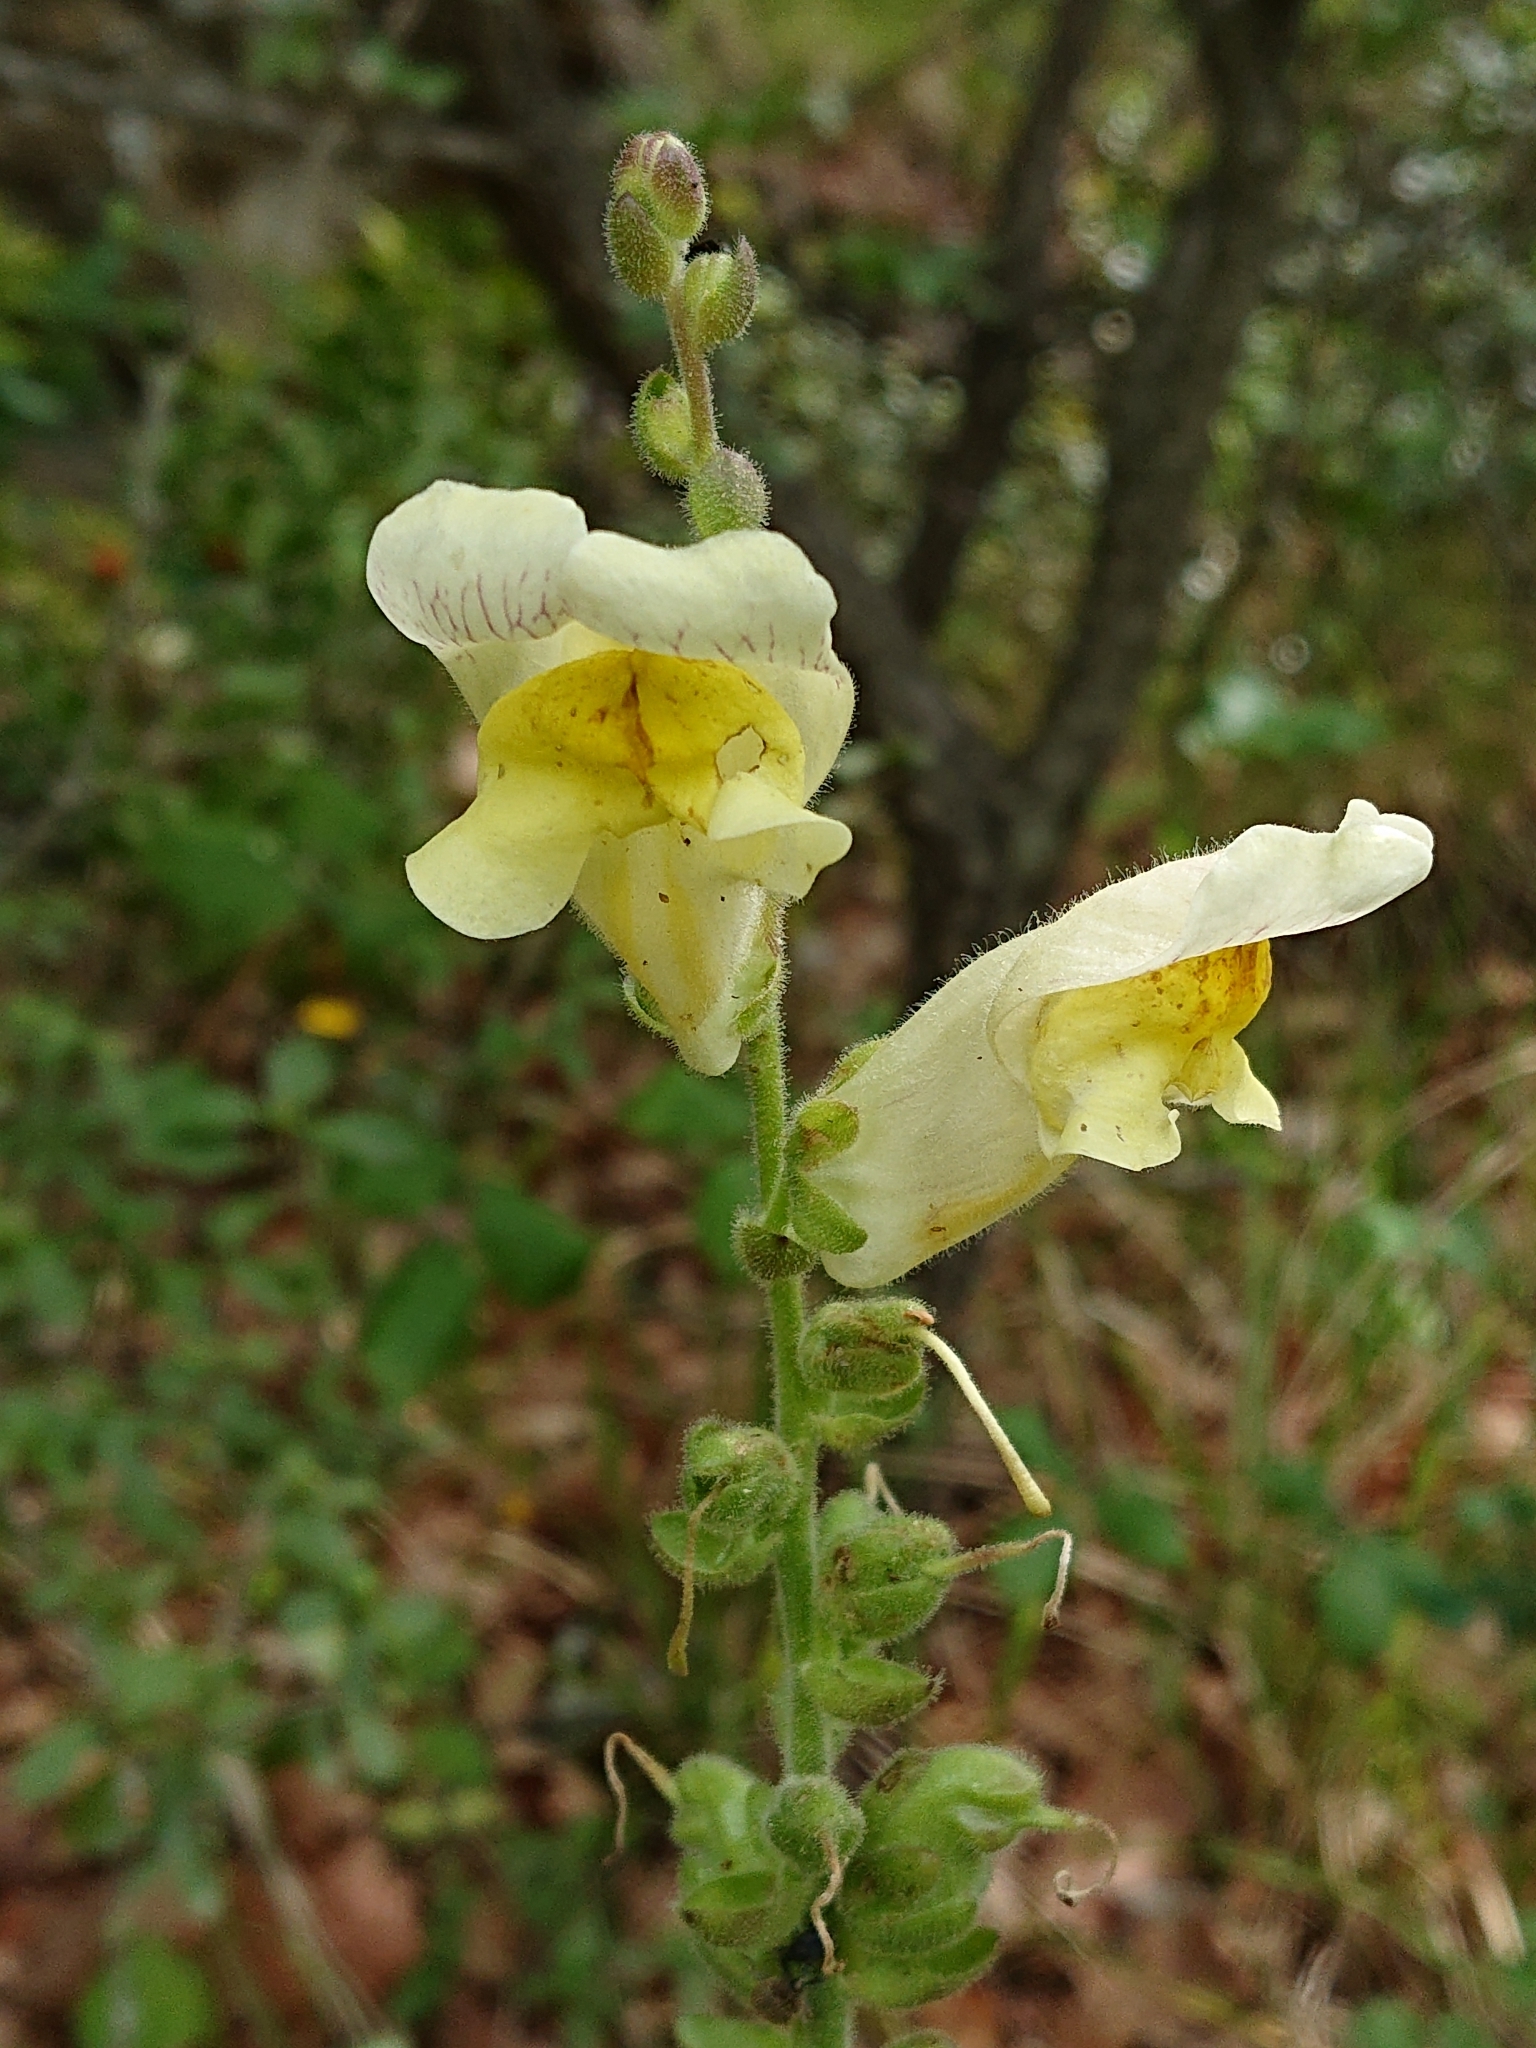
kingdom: Plantae
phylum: Tracheophyta
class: Magnoliopsida
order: Lamiales
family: Plantaginaceae
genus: Antirrhinum
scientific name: Antirrhinum latifolium
